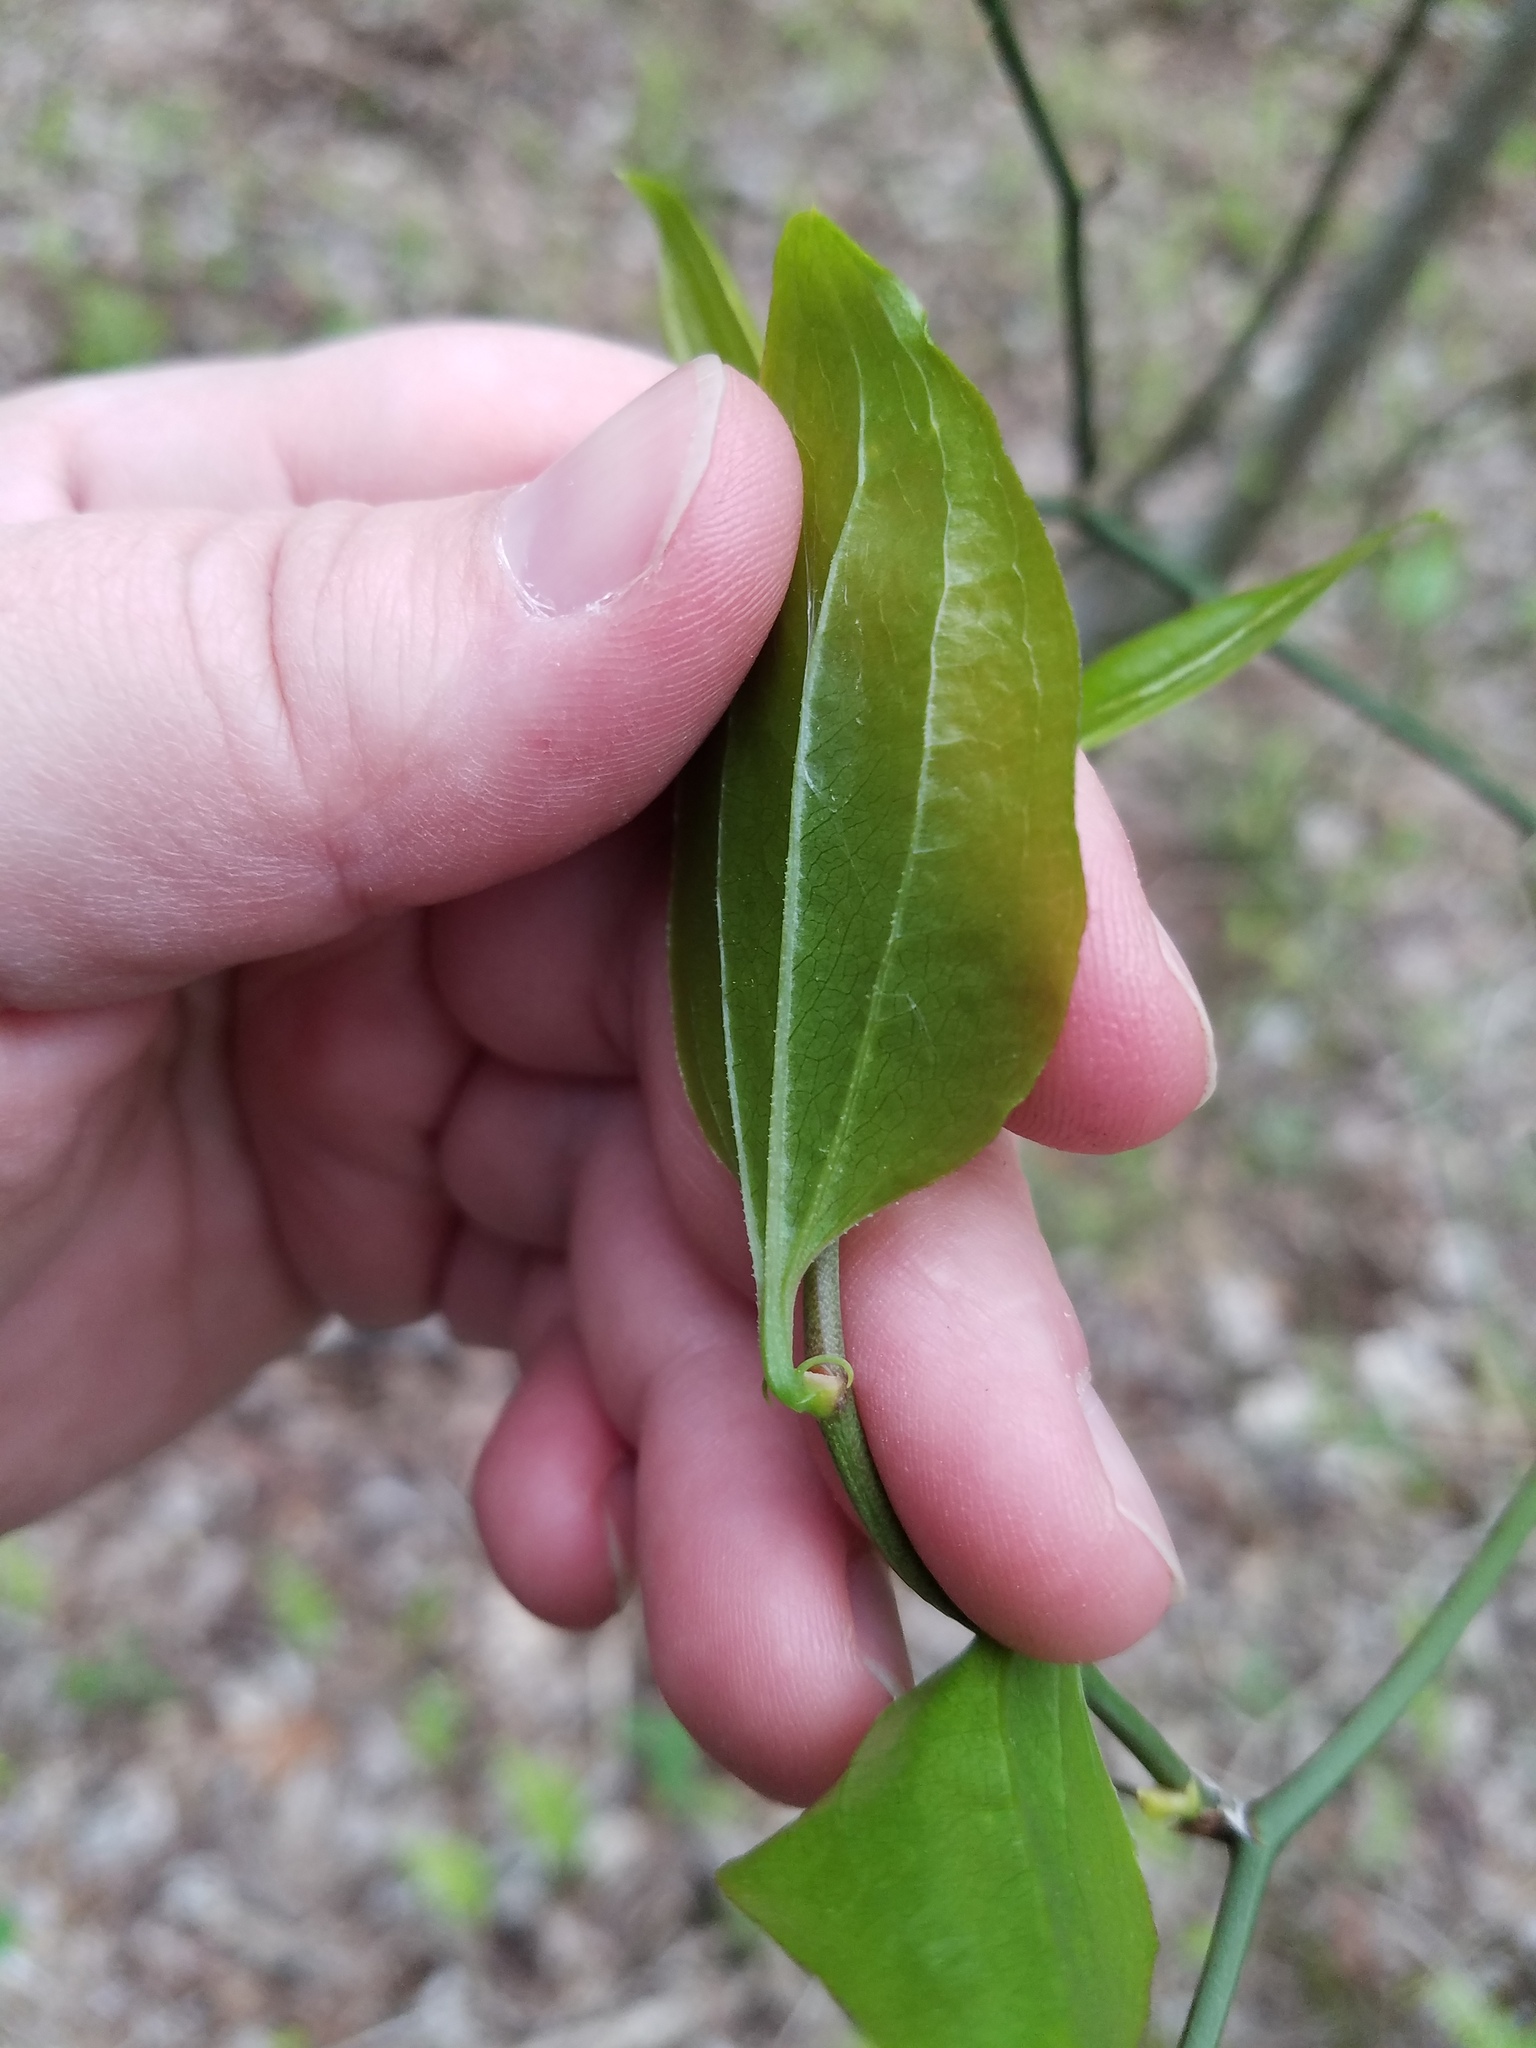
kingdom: Plantae
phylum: Tracheophyta
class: Liliopsida
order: Liliales
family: Smilacaceae
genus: Smilax
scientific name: Smilax rotundifolia
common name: Bullbriar
